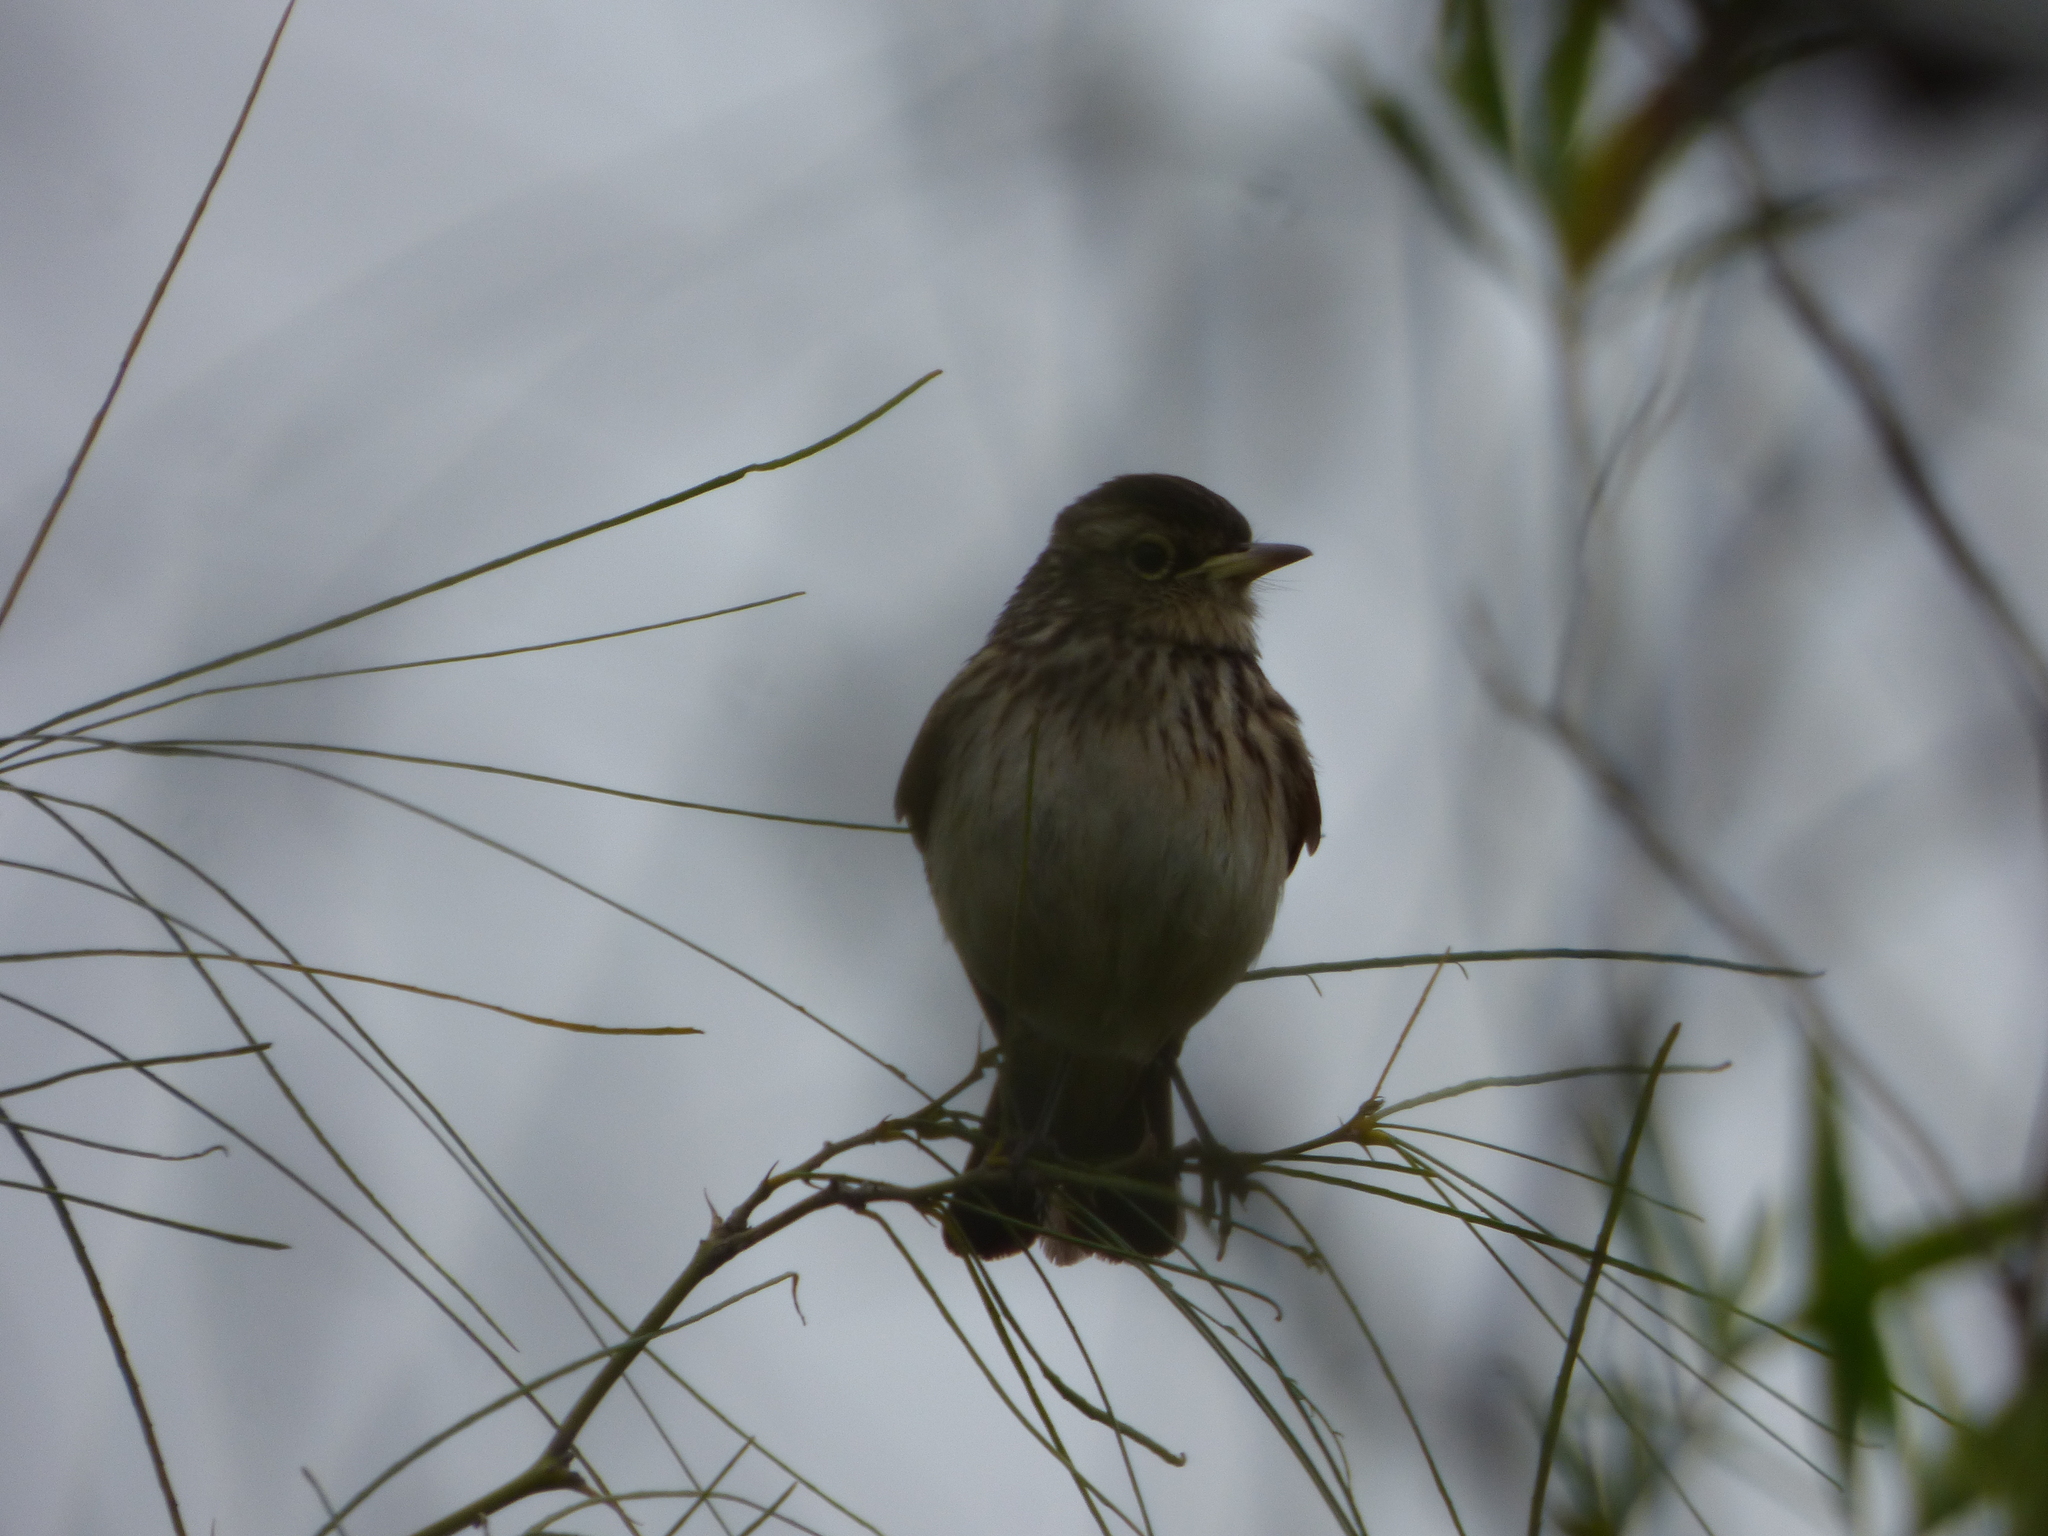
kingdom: Animalia
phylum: Chordata
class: Aves
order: Passeriformes
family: Tyrannidae
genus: Hymenops
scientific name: Hymenops perspicillatus
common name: Spectacled tyrant
